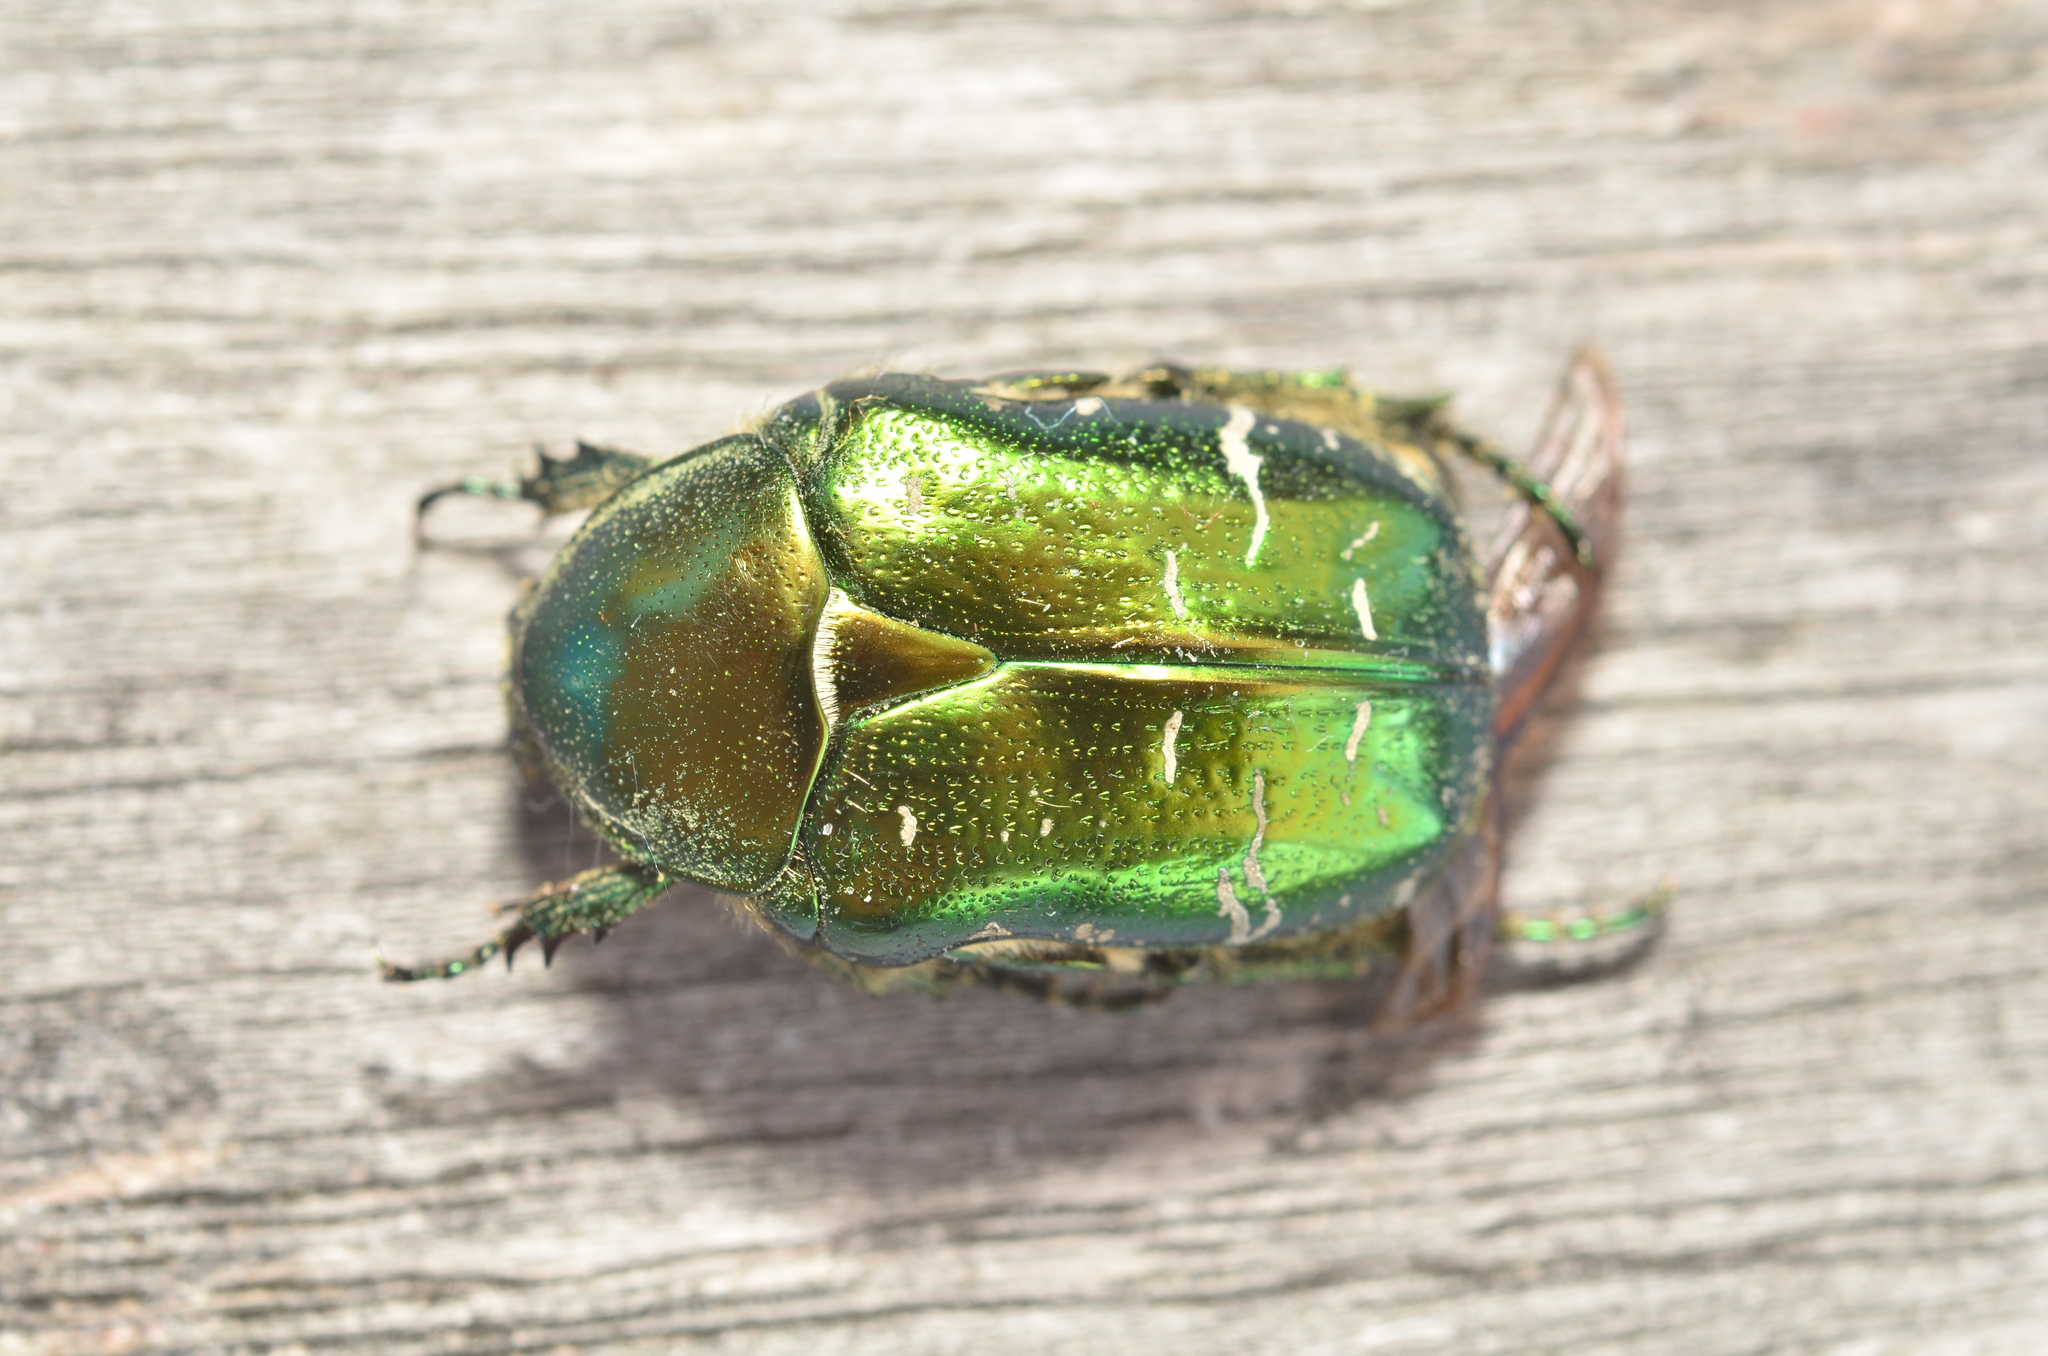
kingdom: Animalia
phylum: Arthropoda
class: Insecta
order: Coleoptera
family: Scarabaeidae
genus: Cetonia
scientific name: Cetonia aurata
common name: Rose chafer
